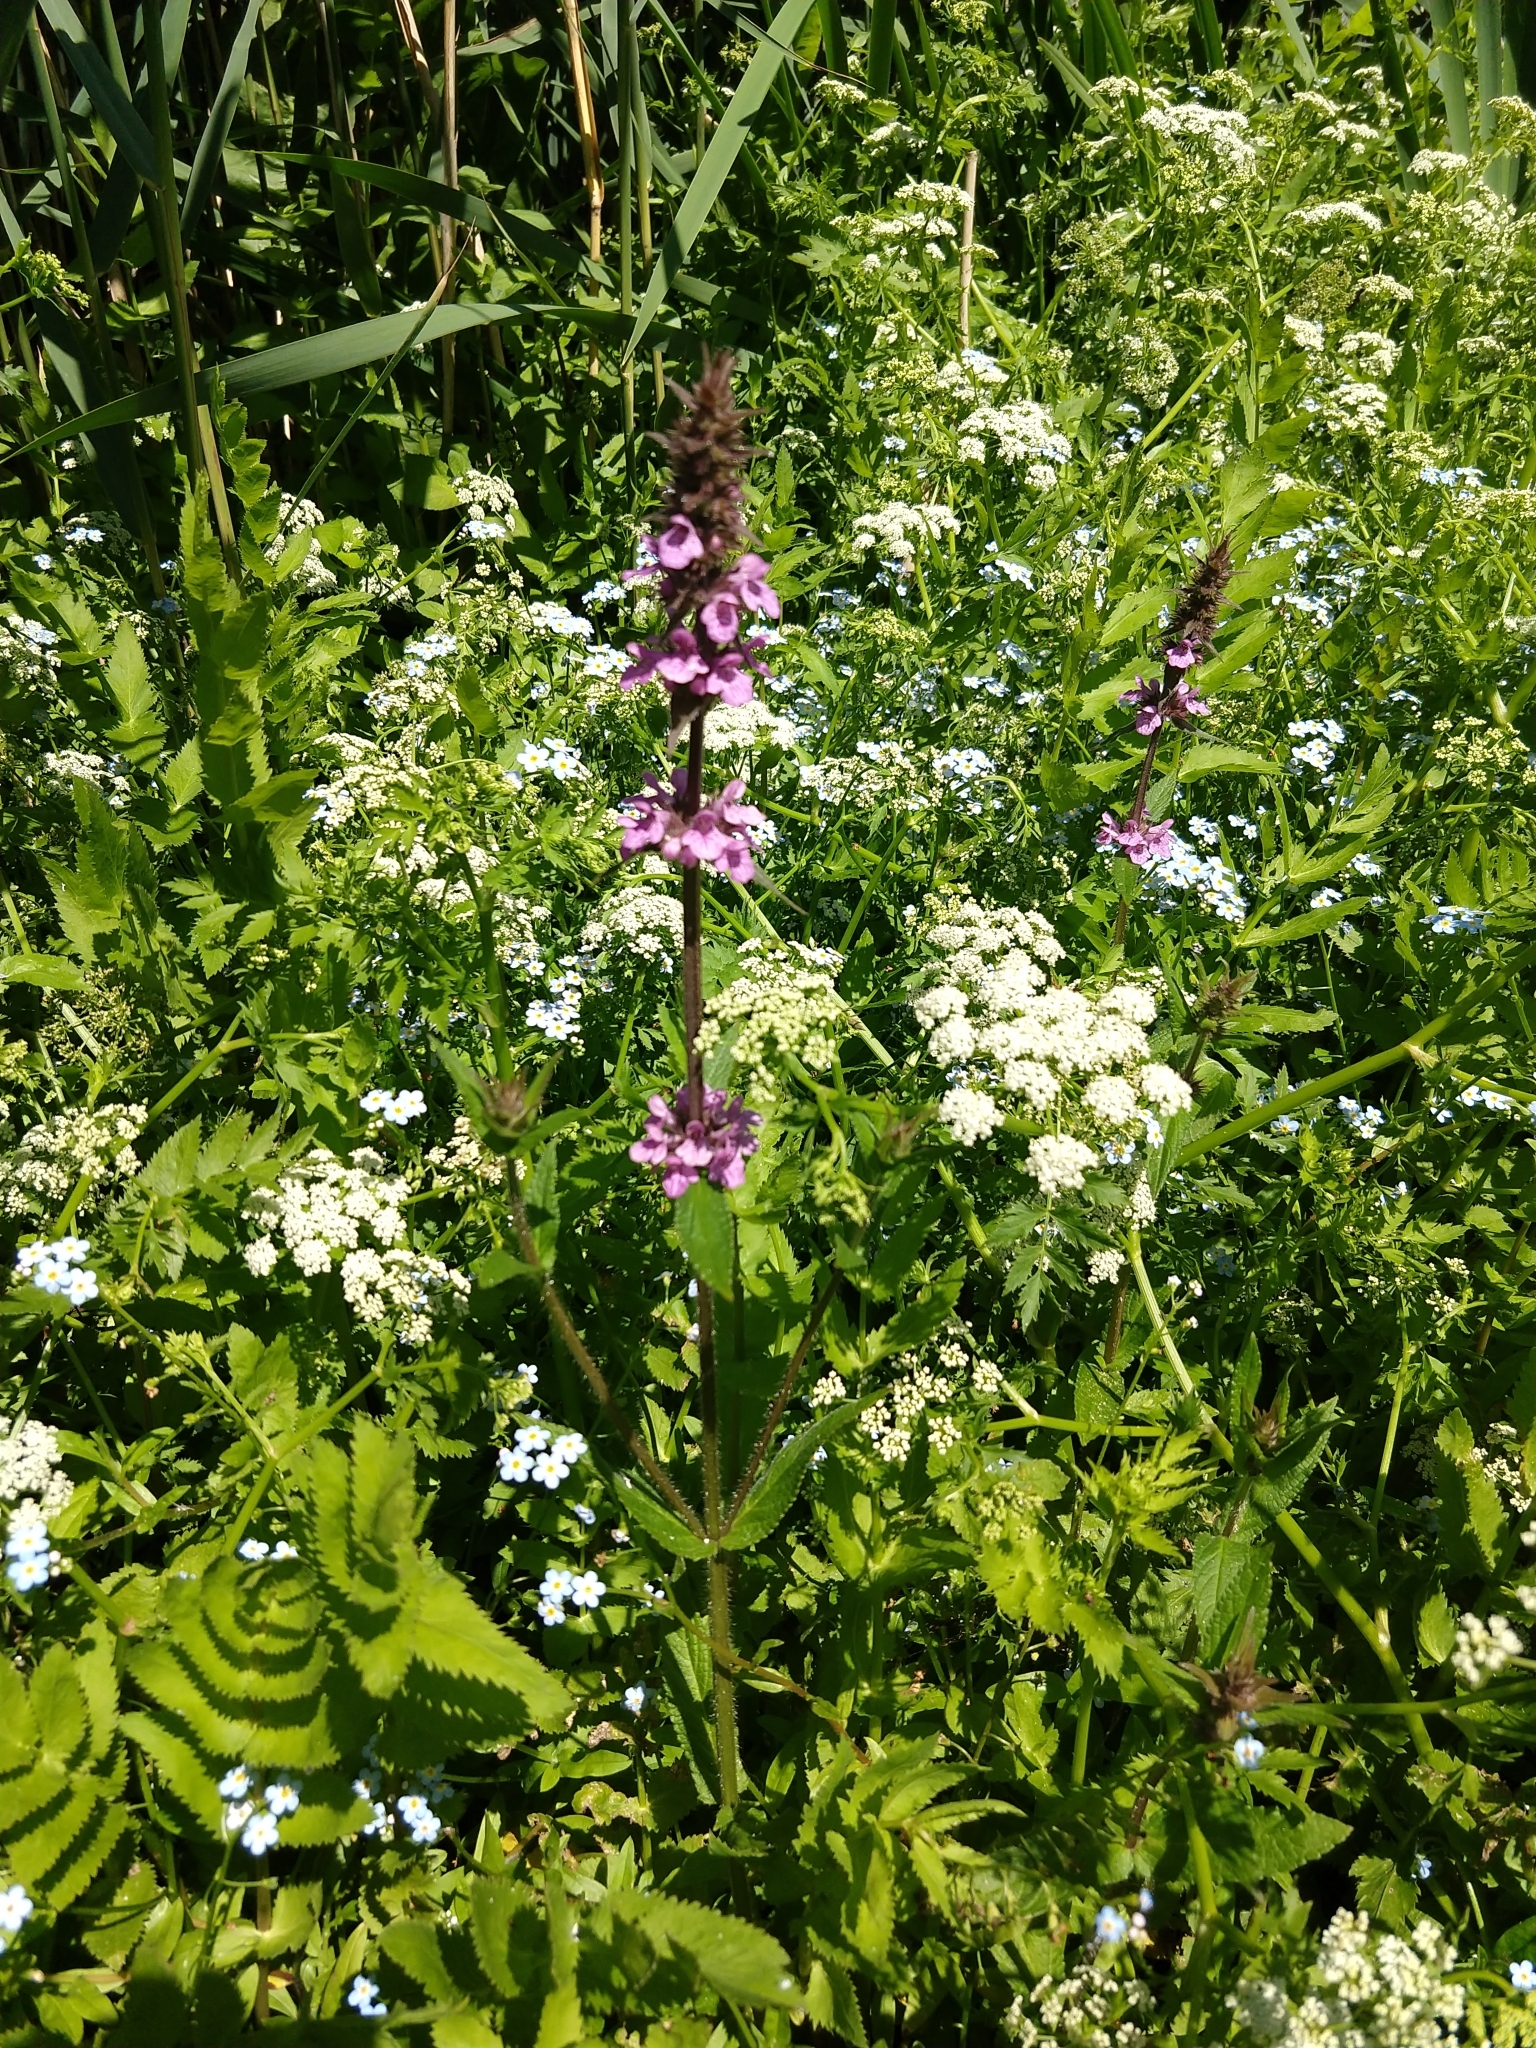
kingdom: Plantae
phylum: Tracheophyta
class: Magnoliopsida
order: Lamiales
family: Lamiaceae
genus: Stachys
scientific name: Stachys palustris
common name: Marsh woundwort
